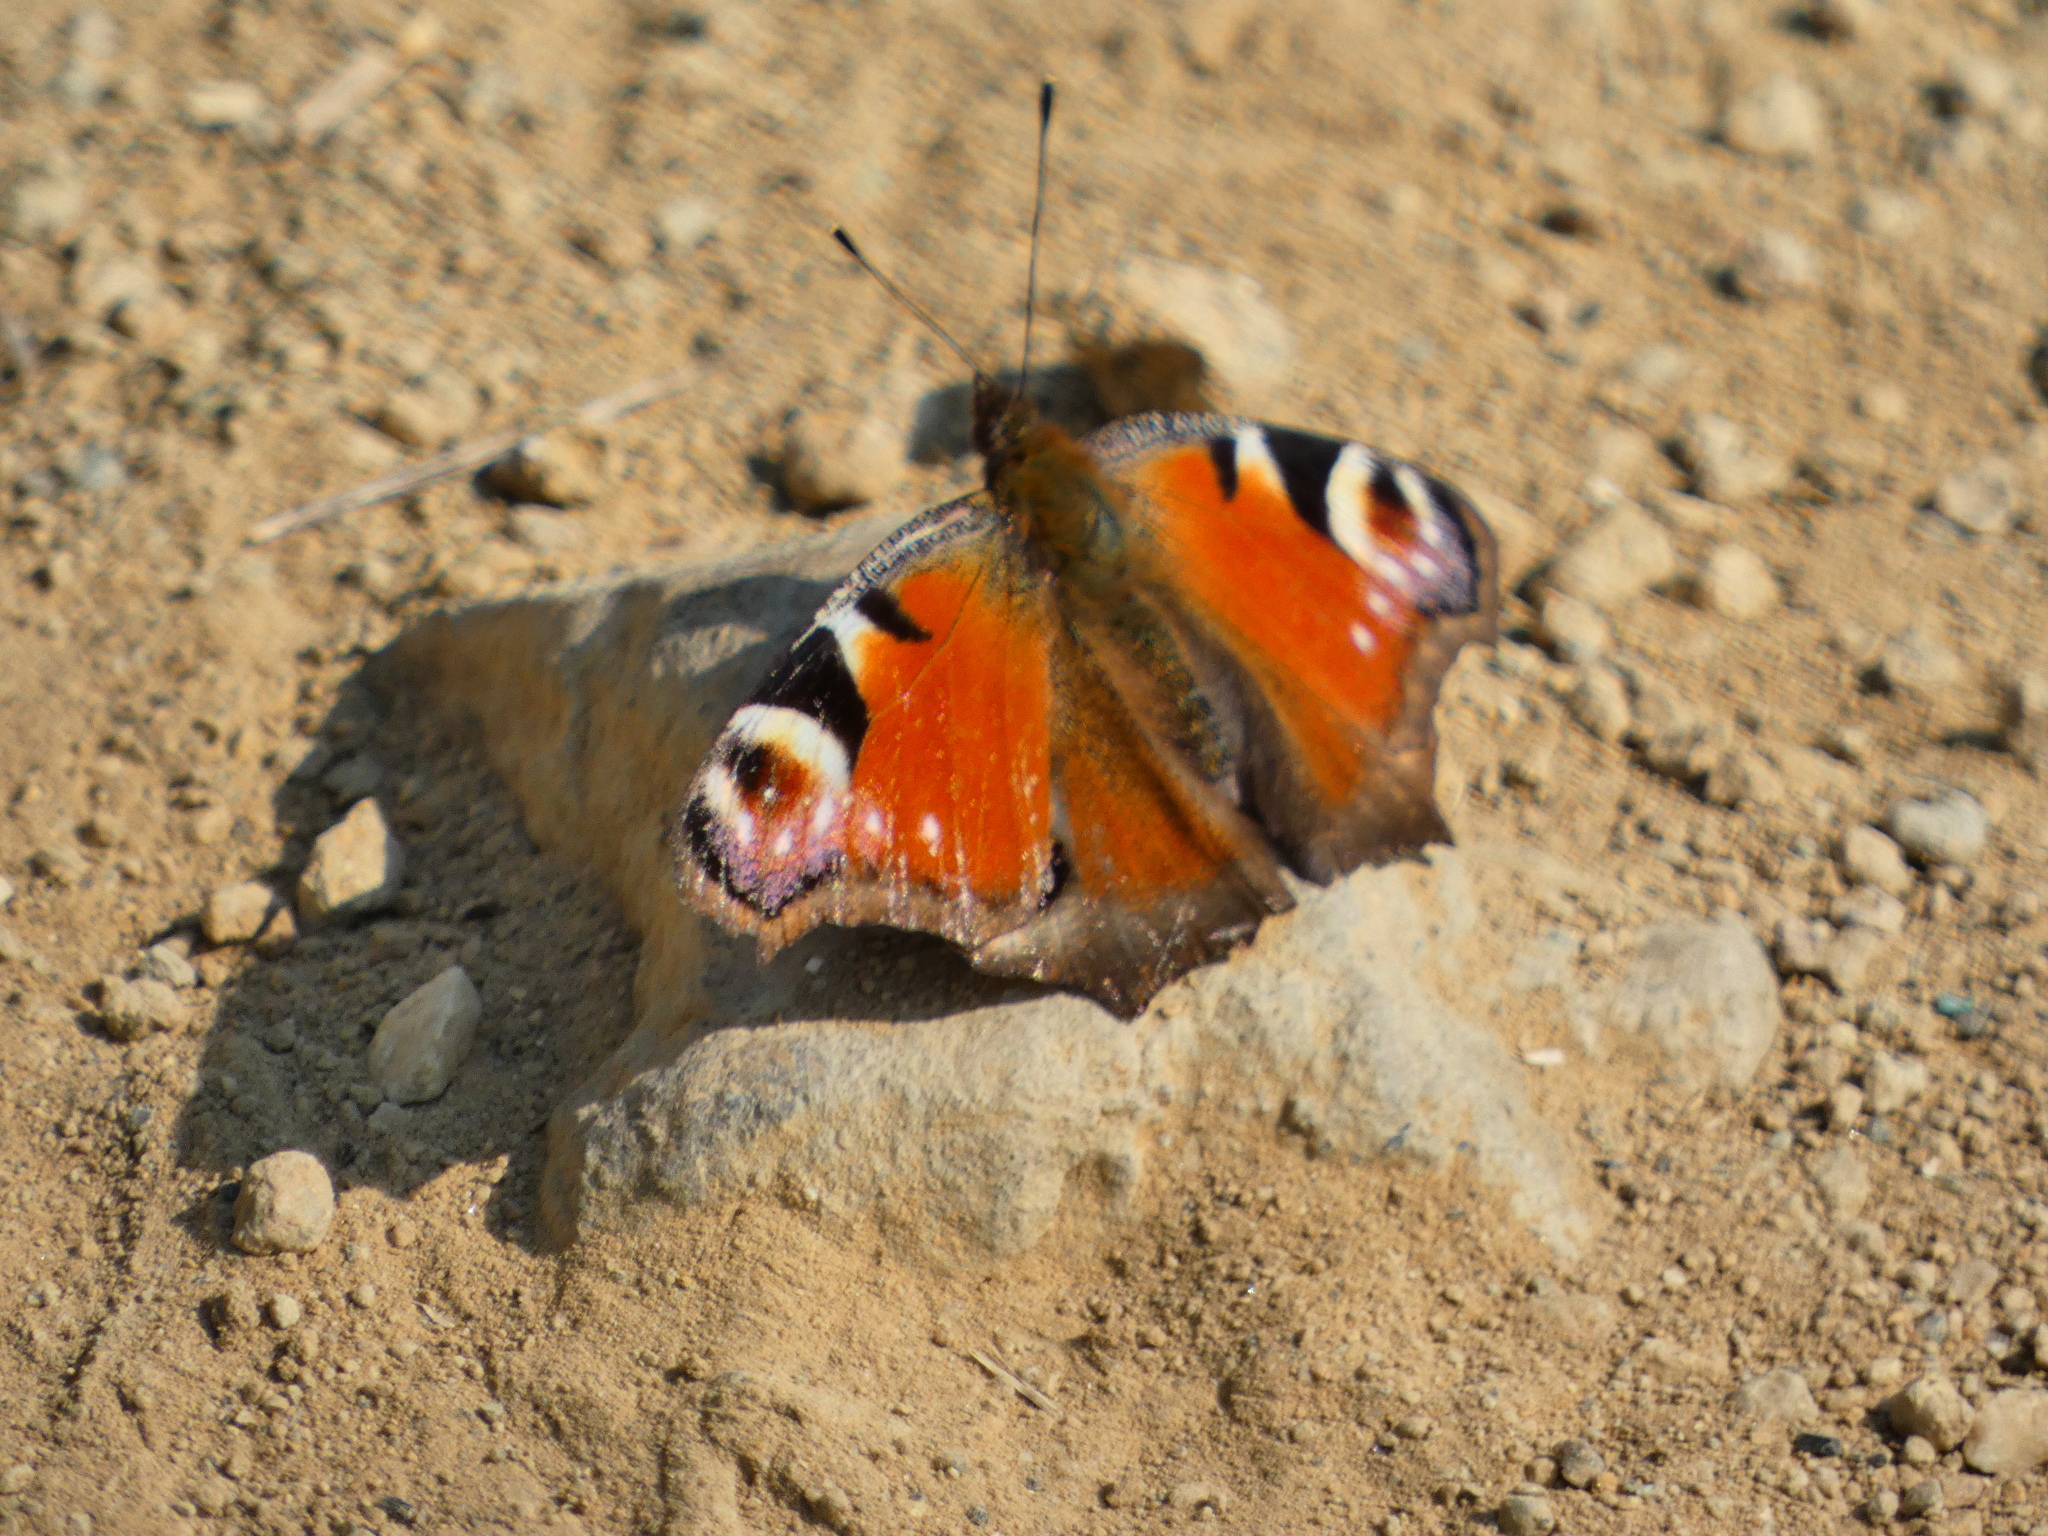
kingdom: Animalia
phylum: Arthropoda
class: Insecta
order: Lepidoptera
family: Nymphalidae
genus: Aglais
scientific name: Aglais io
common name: Peacock
